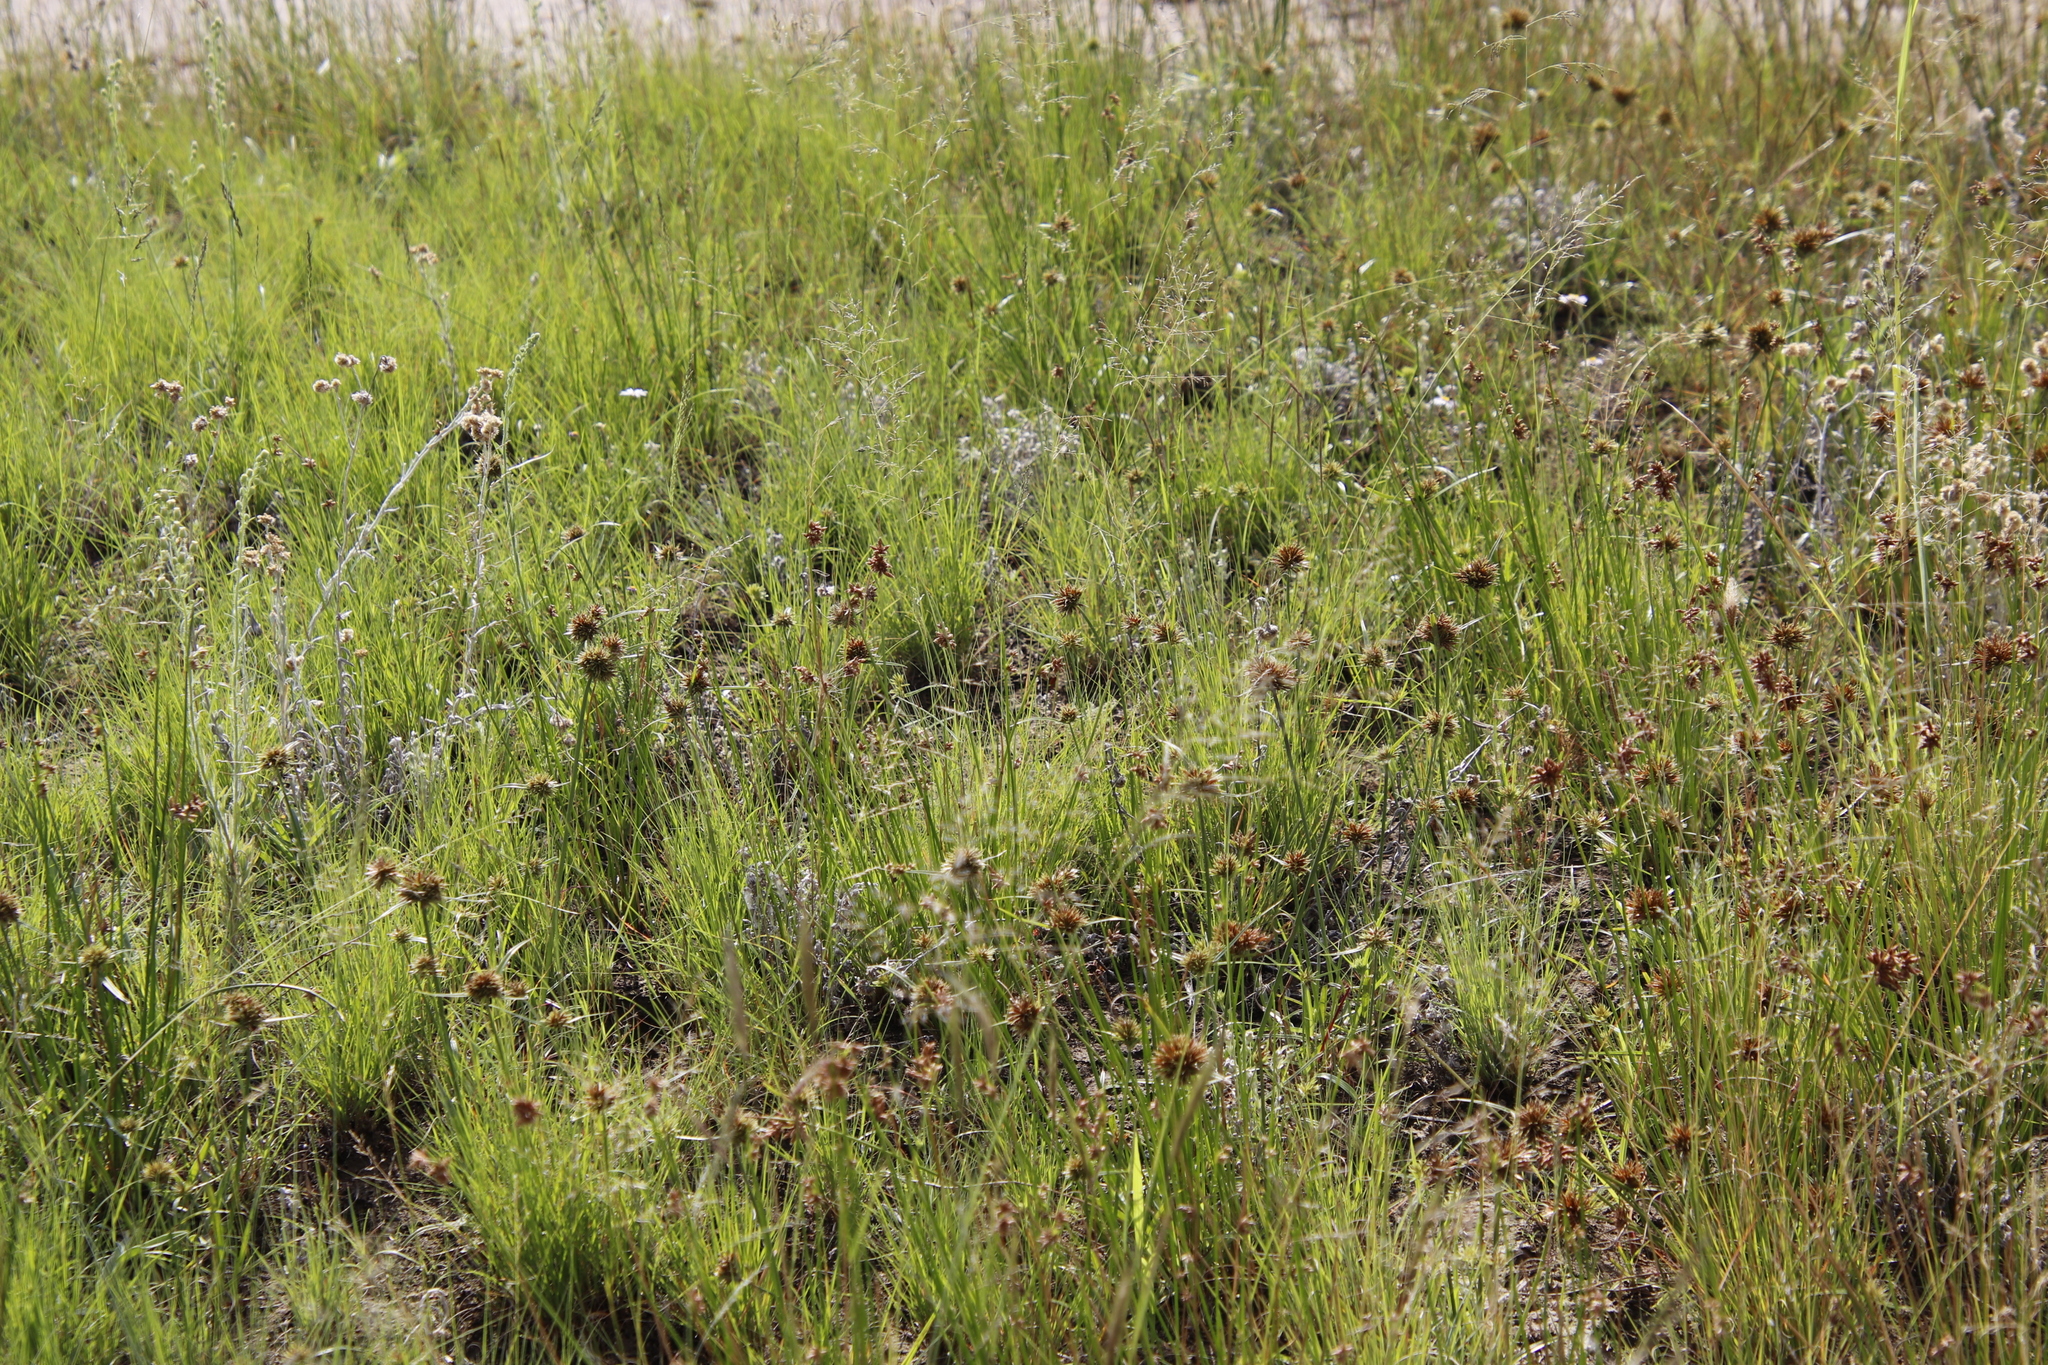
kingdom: Plantae
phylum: Tracheophyta
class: Liliopsida
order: Poales
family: Cyperaceae
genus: Cyperus
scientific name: Cyperus congestus
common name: Dense flat sedge
